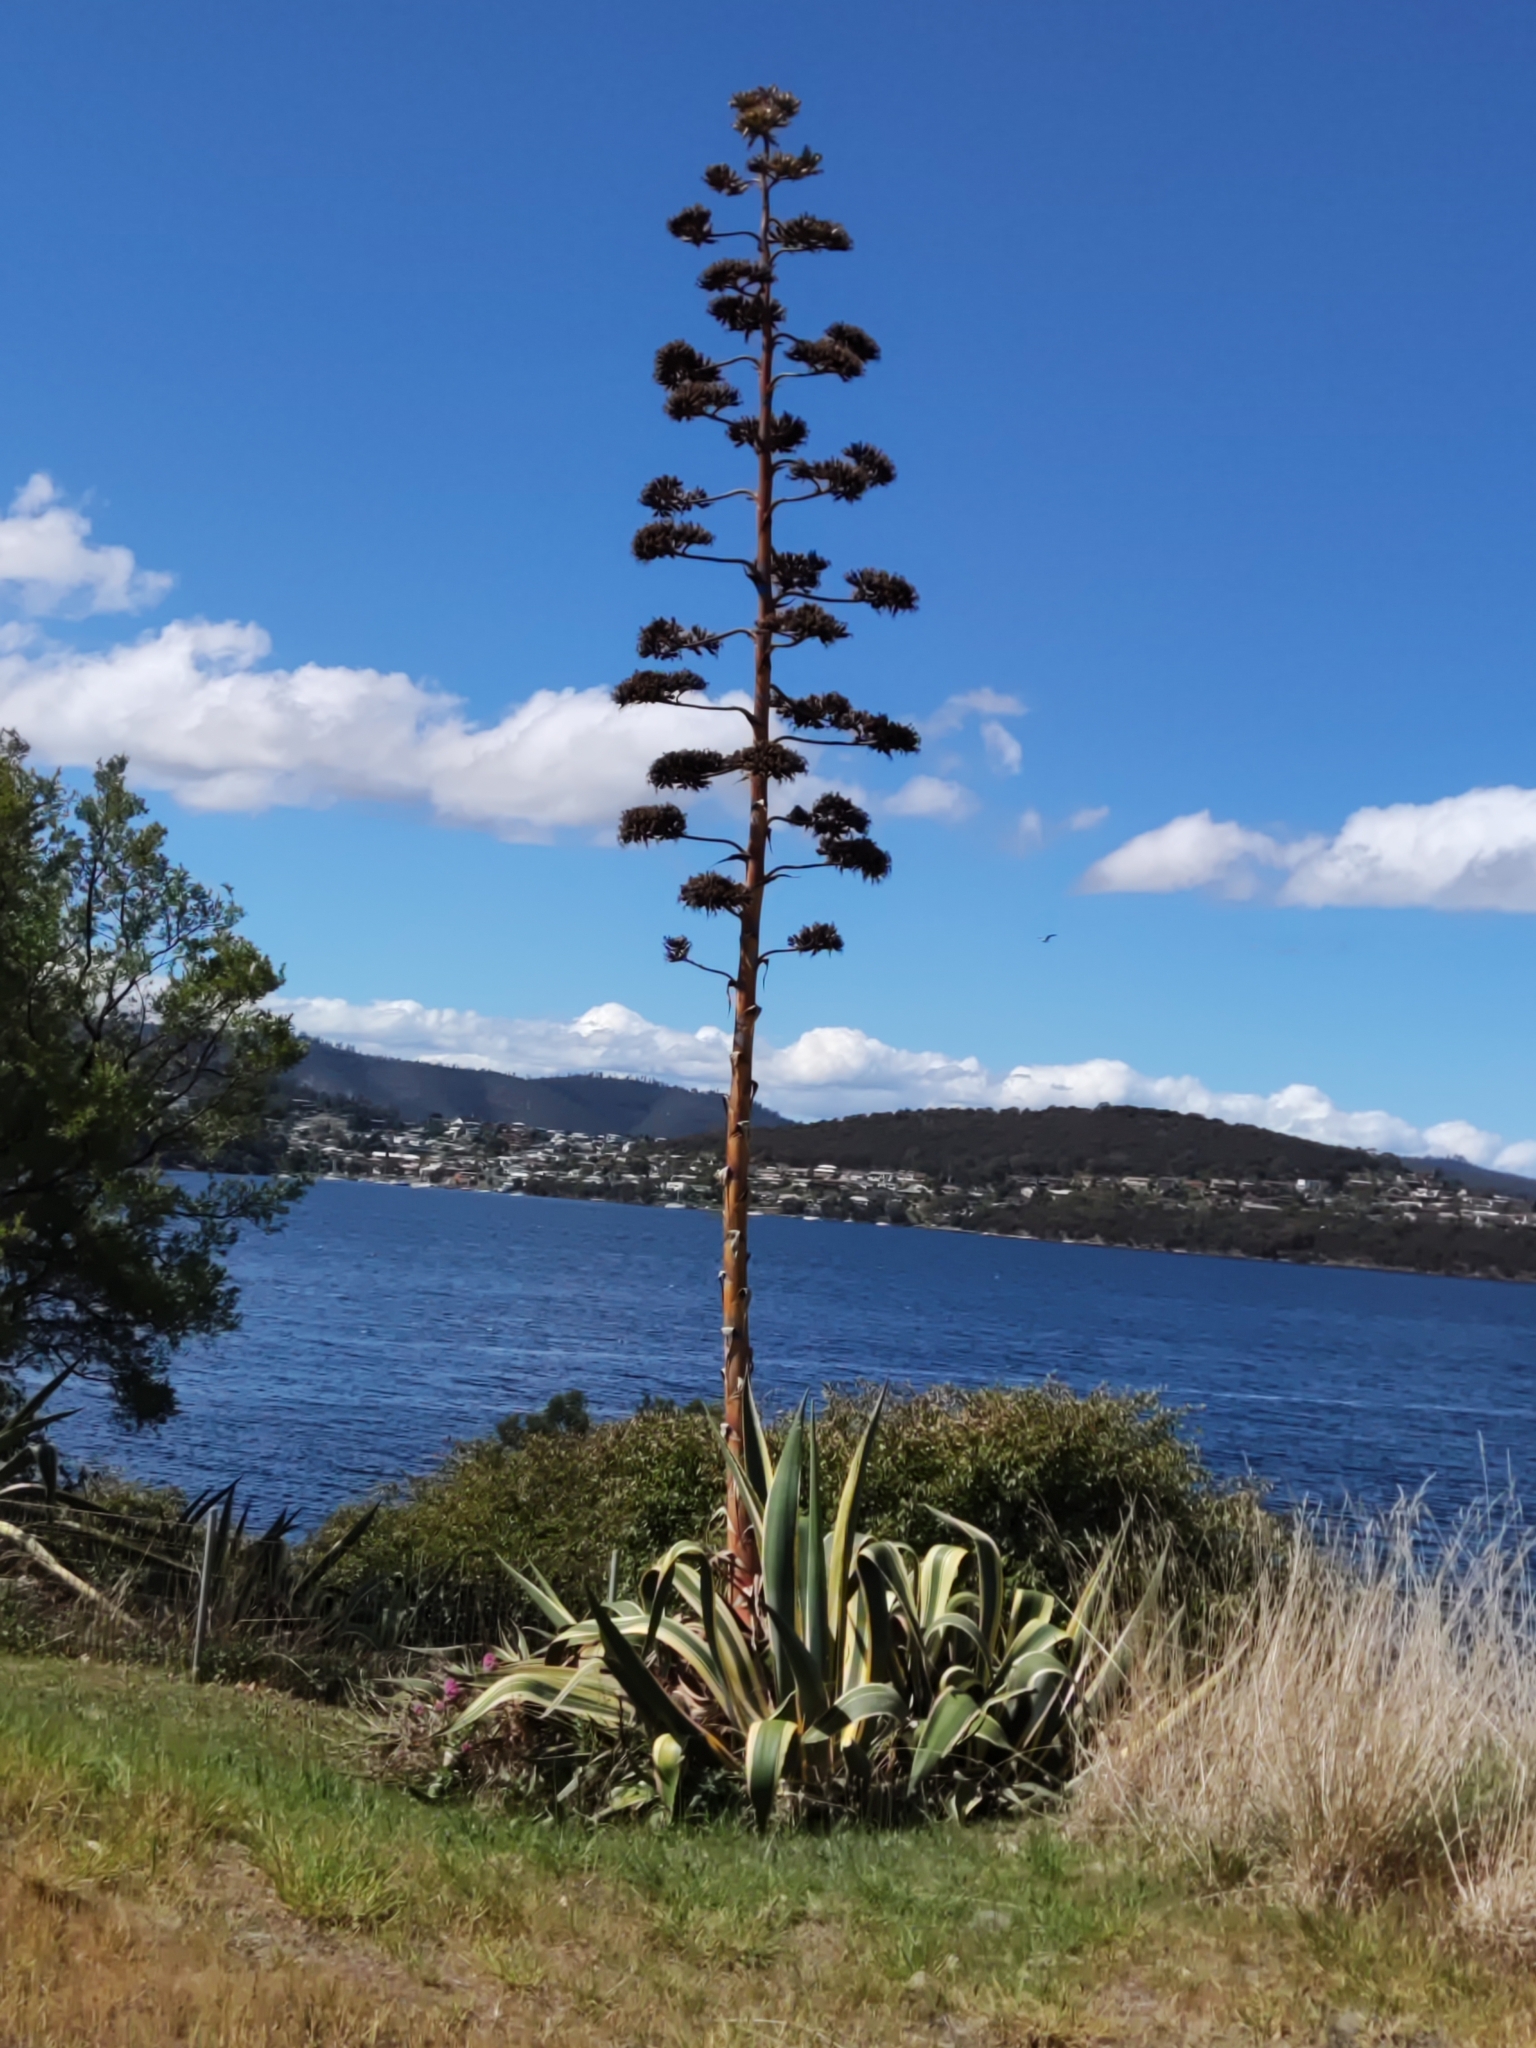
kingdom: Plantae
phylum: Tracheophyta
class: Liliopsida
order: Asparagales
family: Asparagaceae
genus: Agave
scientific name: Agave americana
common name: Centuryplant
